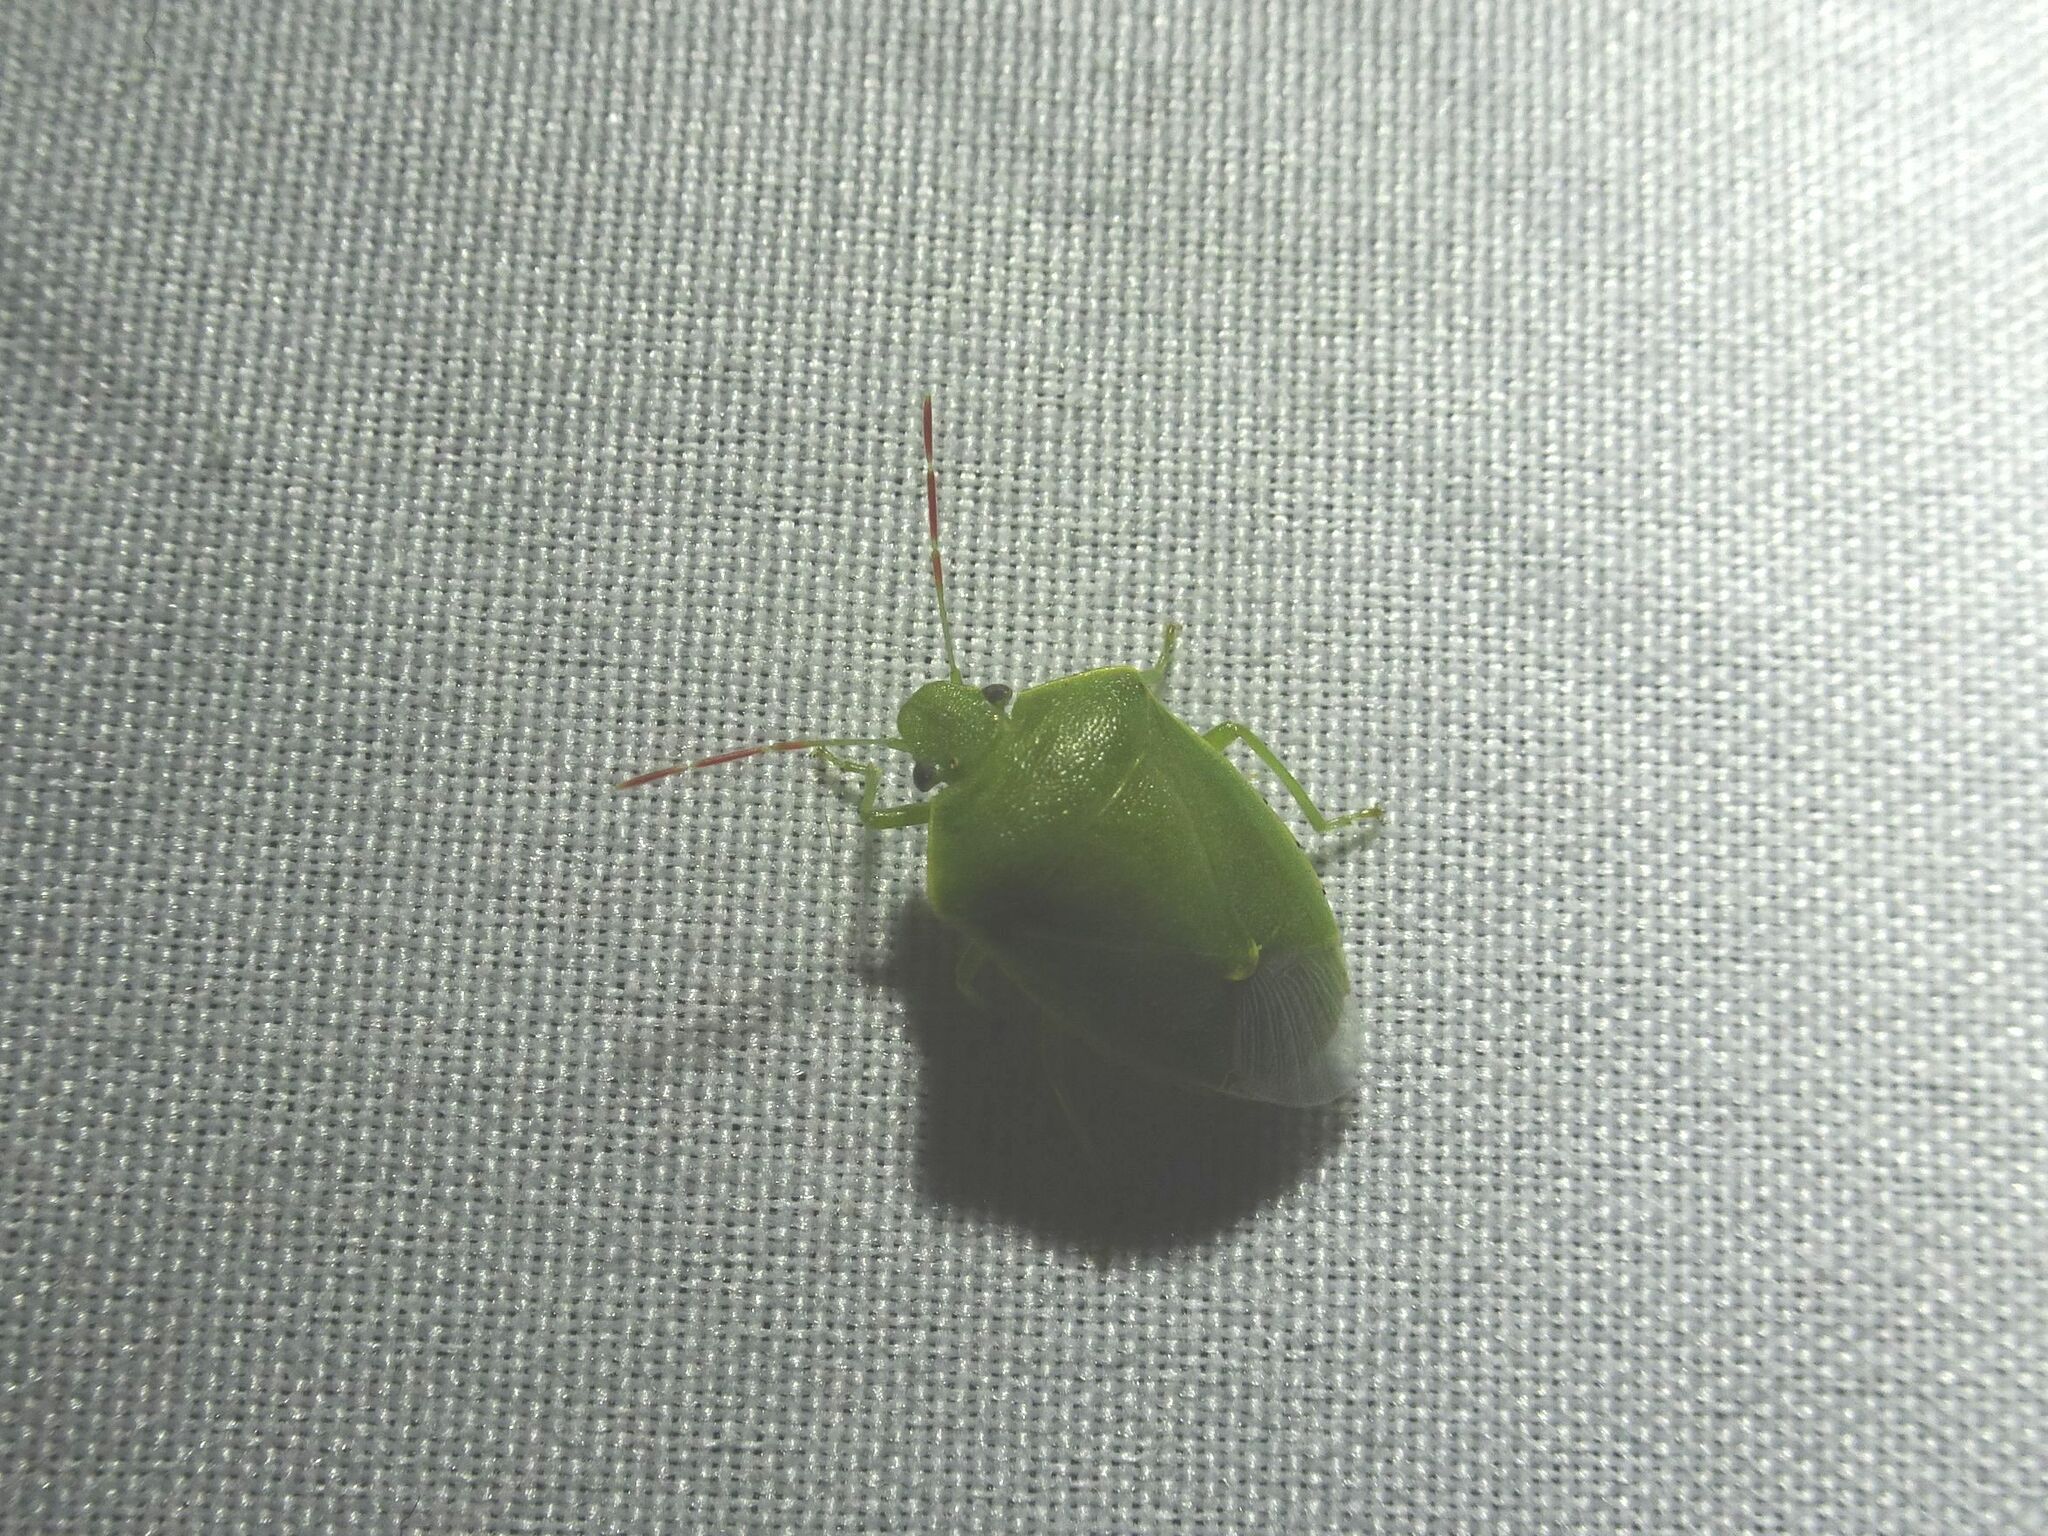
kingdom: Animalia
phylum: Arthropoda
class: Insecta
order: Hemiptera
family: Pentatomidae
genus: Acrosternum
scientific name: Acrosternum heegeri
